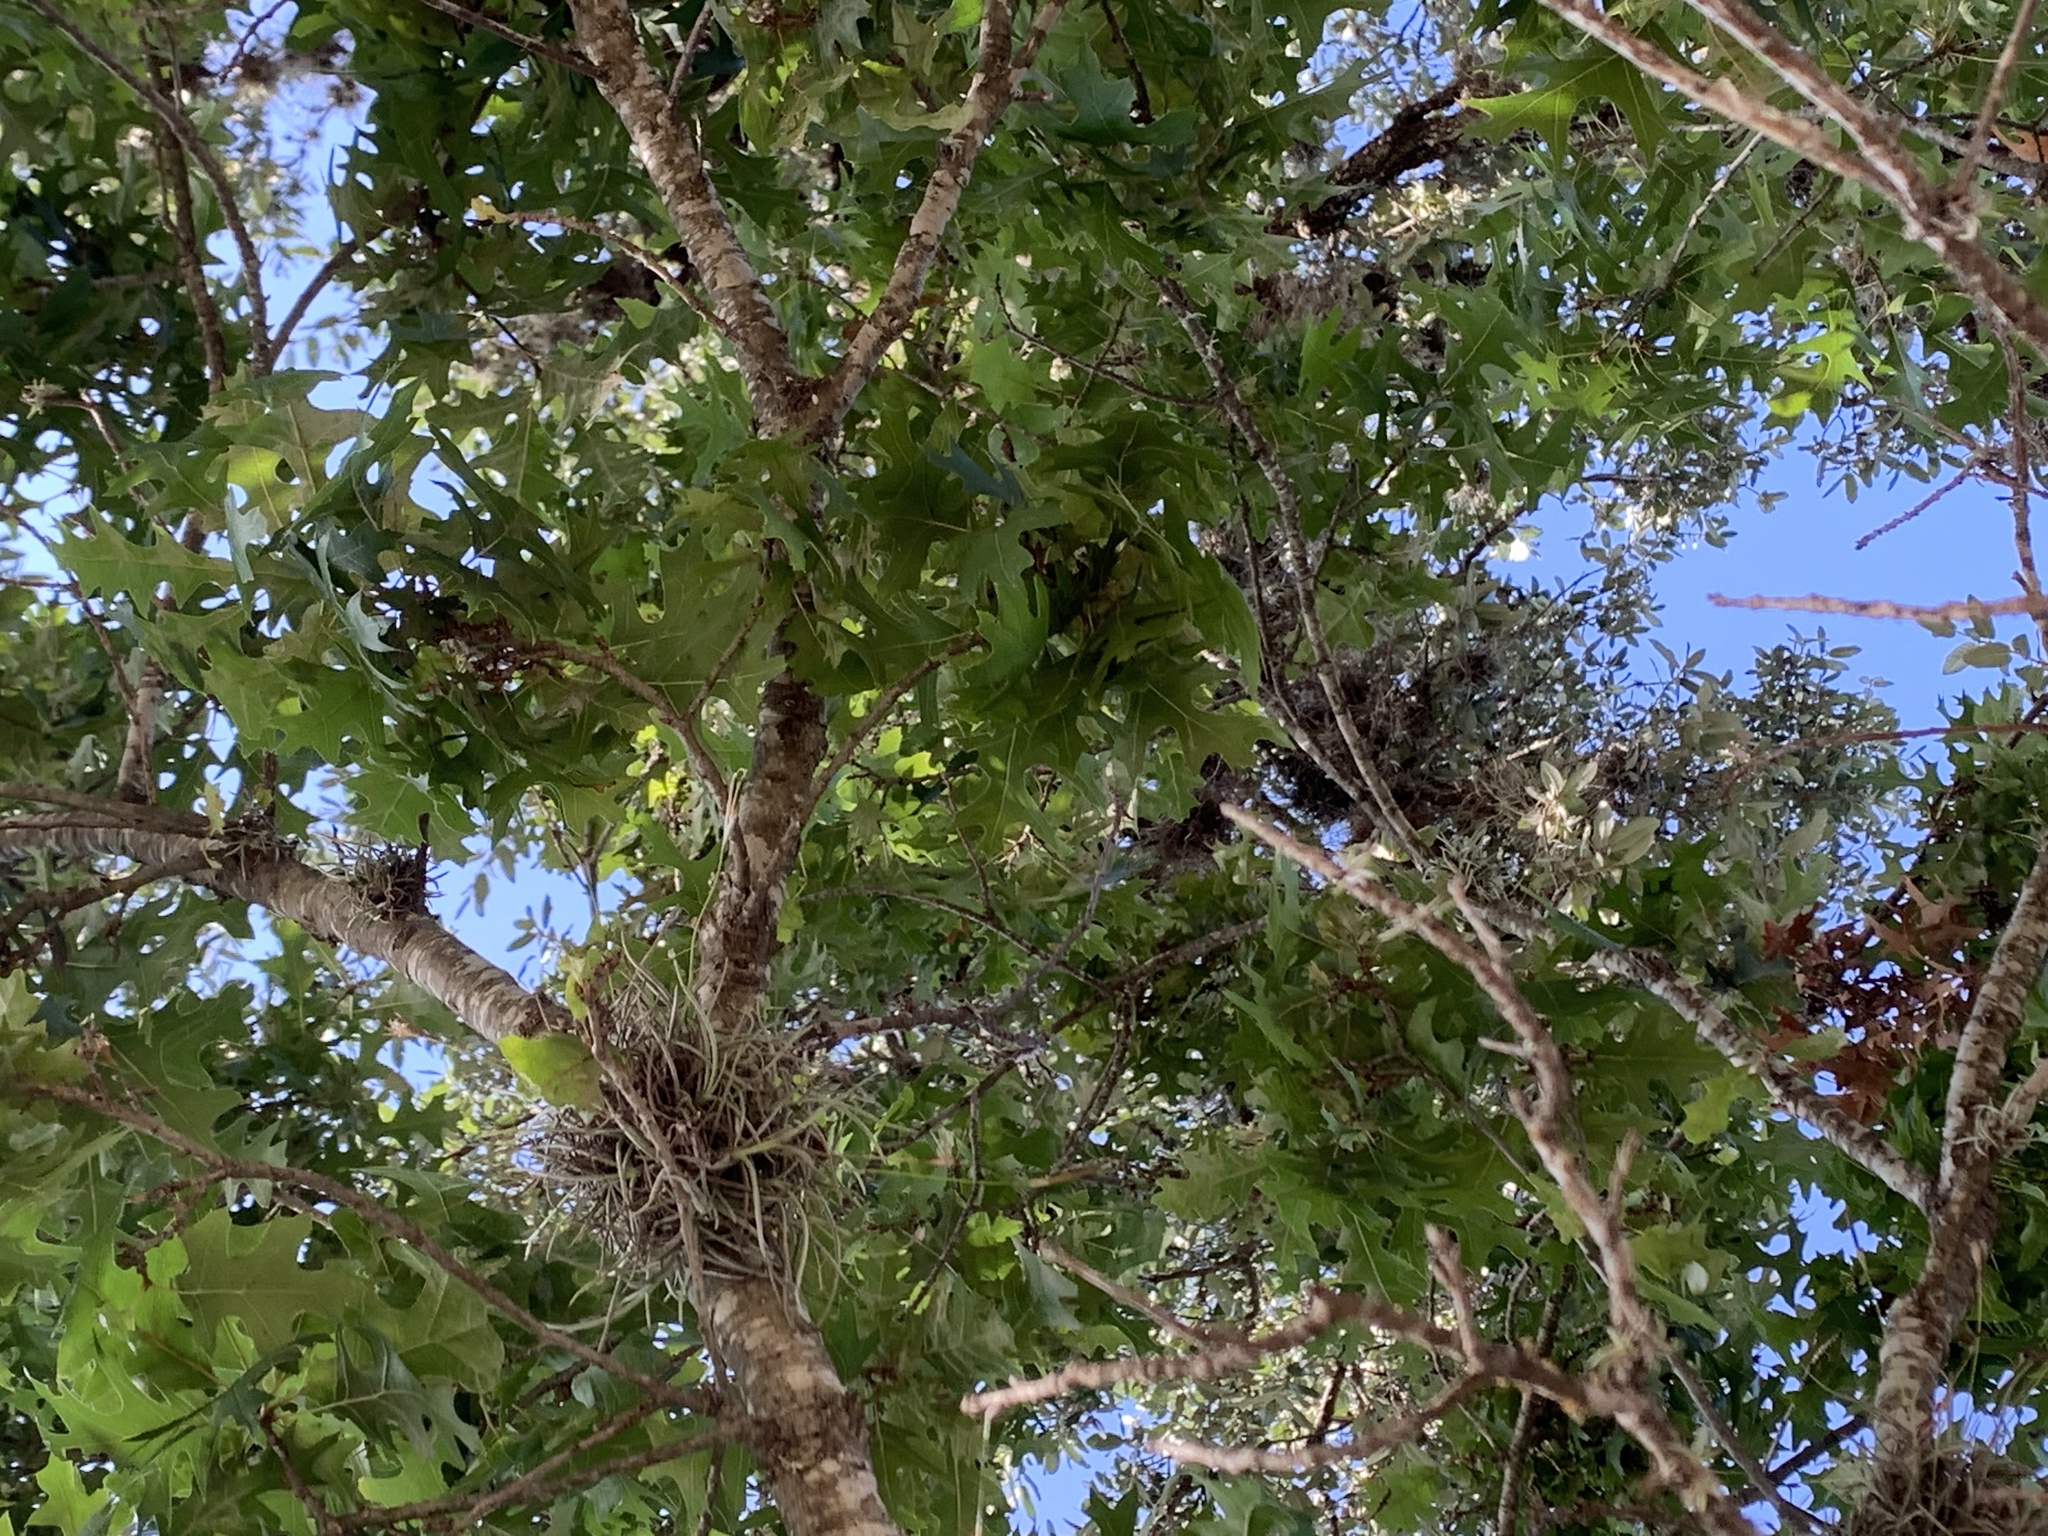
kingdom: Plantae
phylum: Tracheophyta
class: Magnoliopsida
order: Fagales
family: Fagaceae
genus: Quercus
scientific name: Quercus buckleyi
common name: Buckley oak
